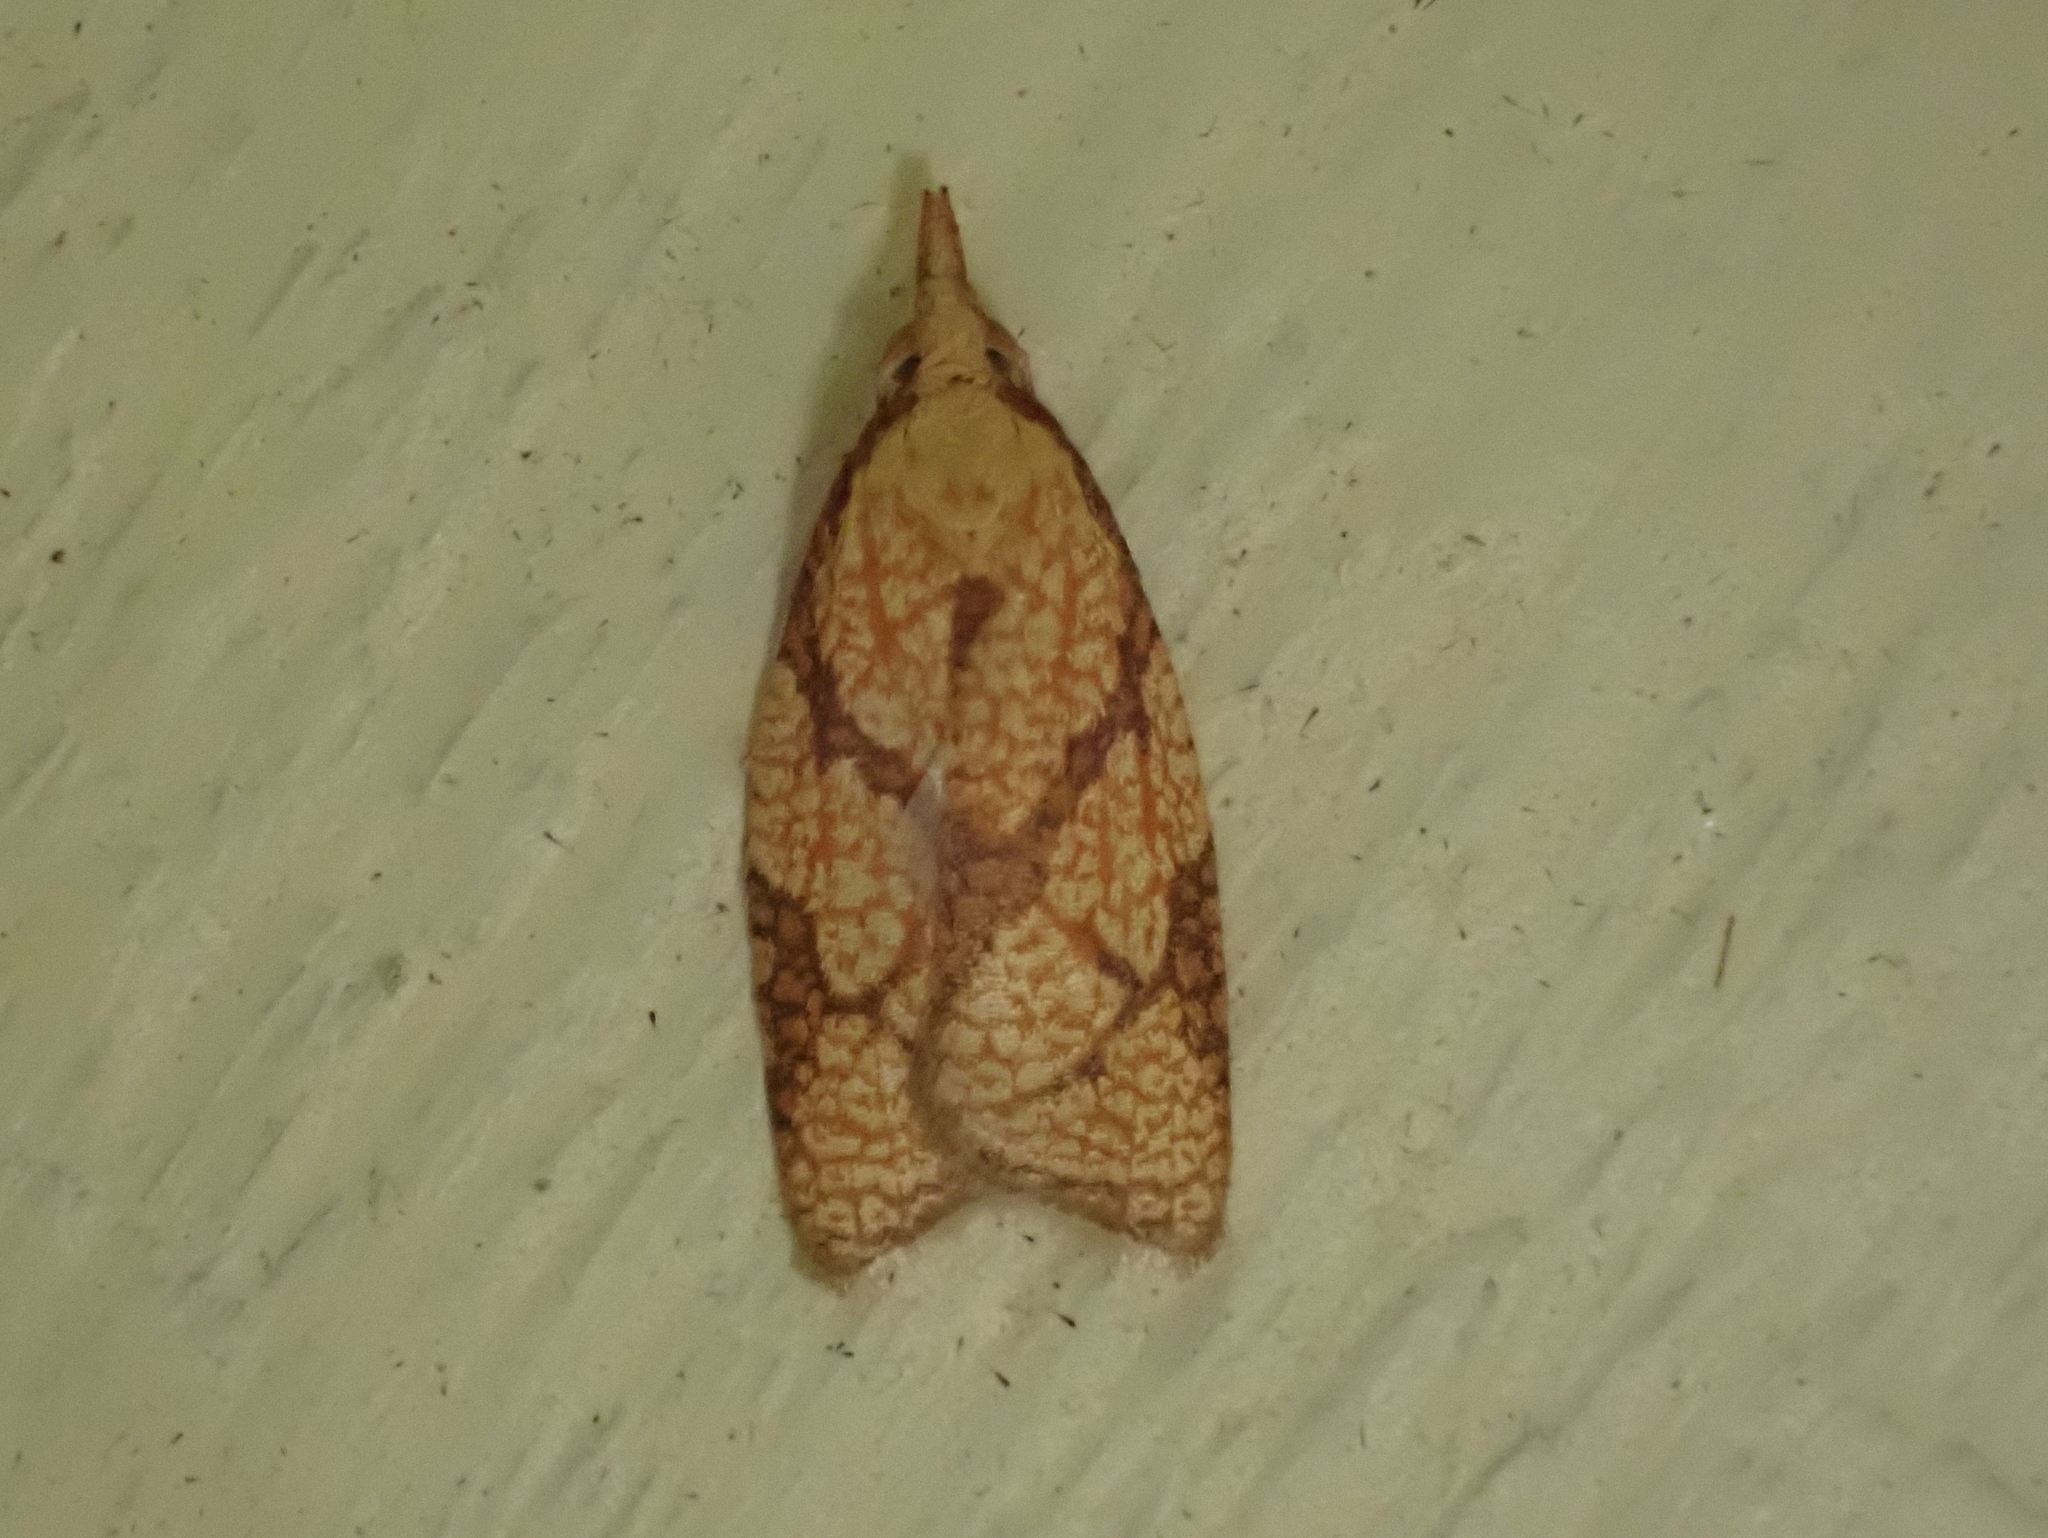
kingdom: Animalia
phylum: Arthropoda
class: Insecta
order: Lepidoptera
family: Tortricidae
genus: Cenopis
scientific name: Cenopis reticulatana
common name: Reticulated fruitworm moth
